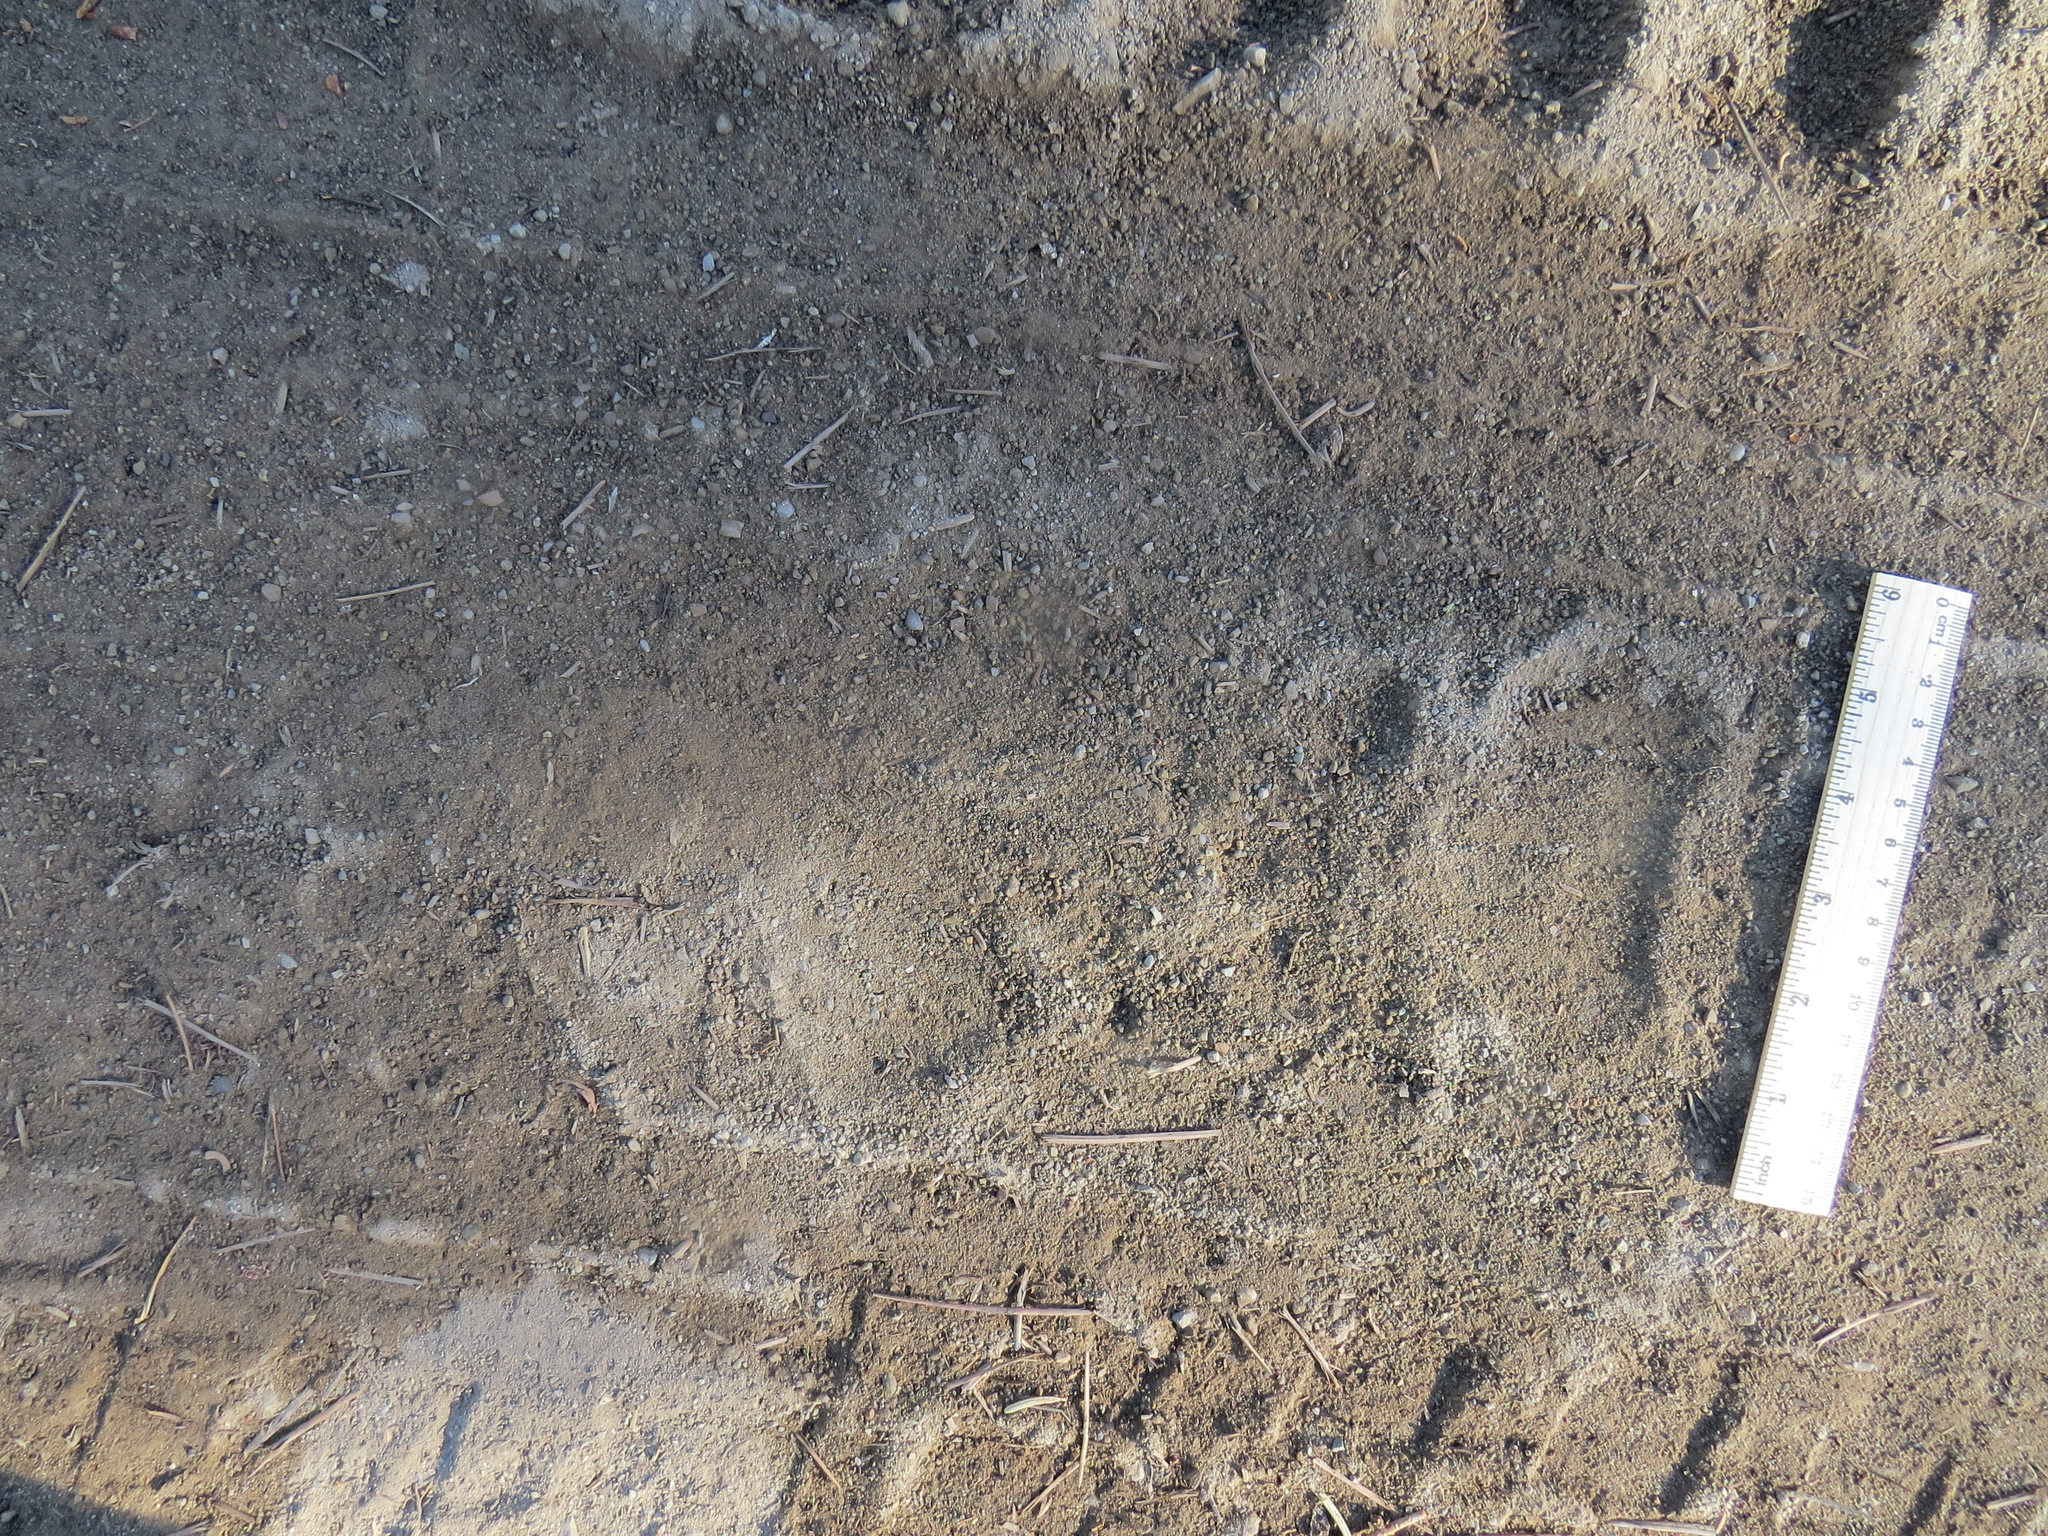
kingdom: Animalia
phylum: Chordata
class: Mammalia
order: Carnivora
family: Ursidae
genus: Ursus
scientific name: Ursus americanus
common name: American black bear
